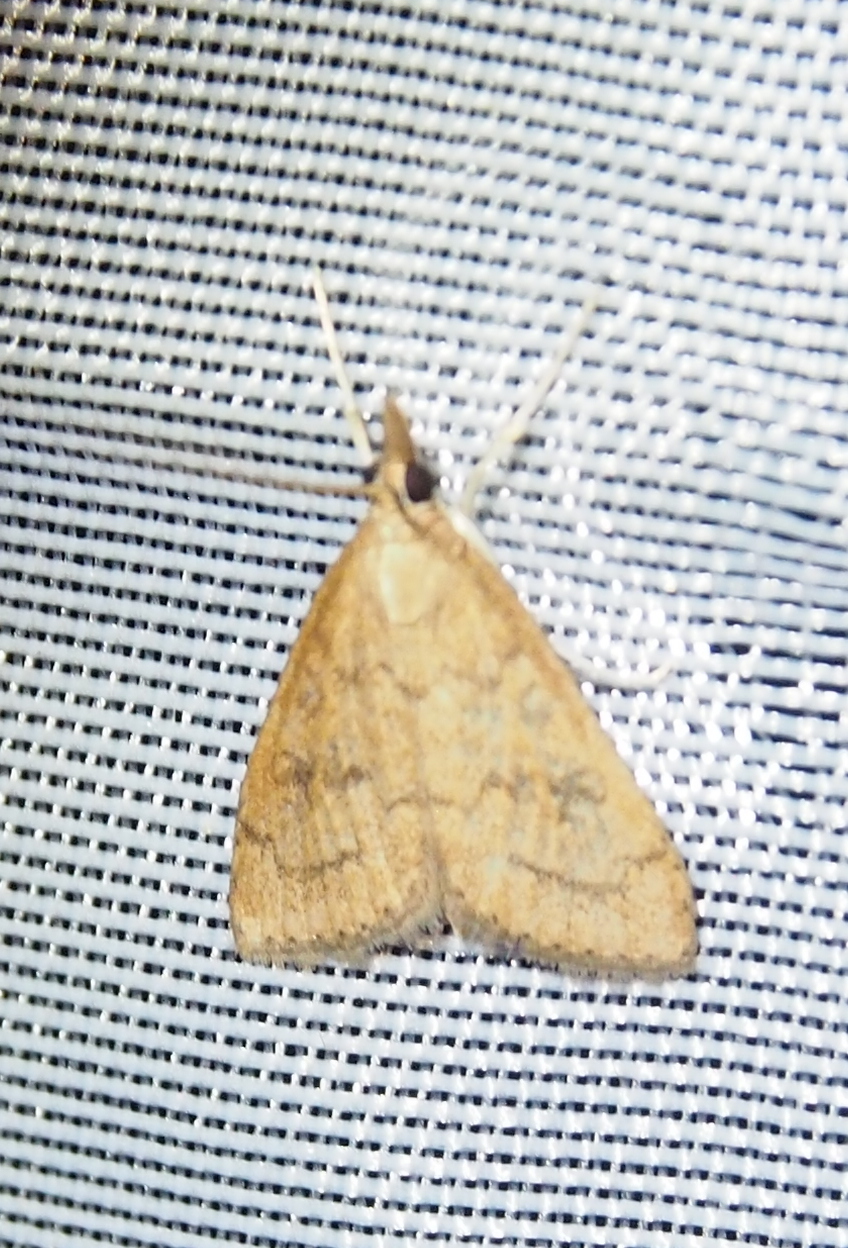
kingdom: Animalia
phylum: Arthropoda
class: Insecta
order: Lepidoptera
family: Crambidae
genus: Udea
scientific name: Udea rubigalis
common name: Celery leaftier moth
